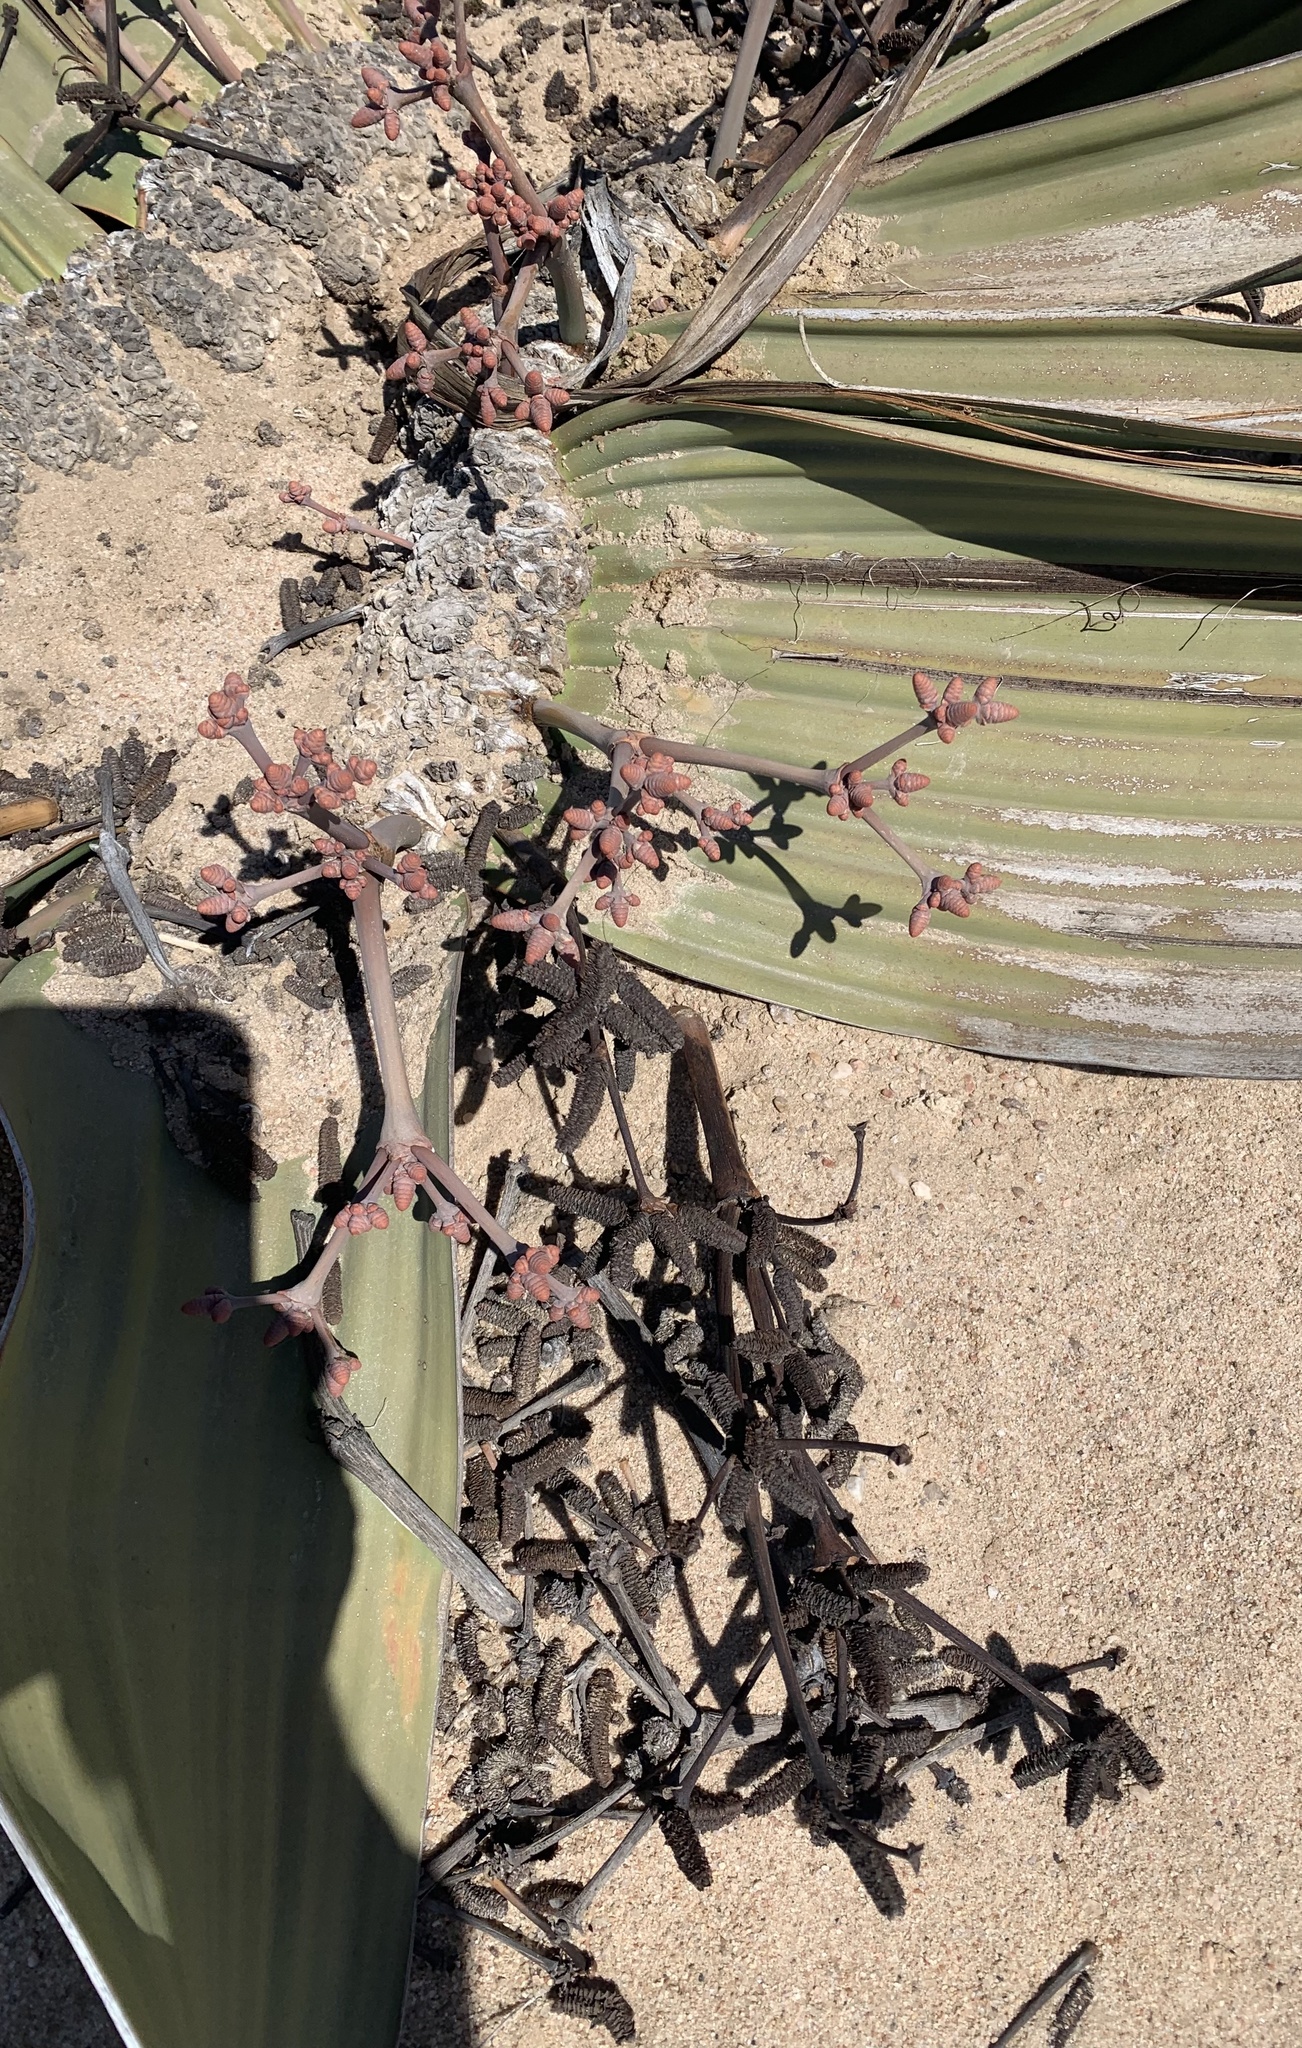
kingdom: Plantae
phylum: Tracheophyta
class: Gnetopsida
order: Welwitschiales
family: Welwitschiaceae
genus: Welwitschia
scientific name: Welwitschia mirabilis
